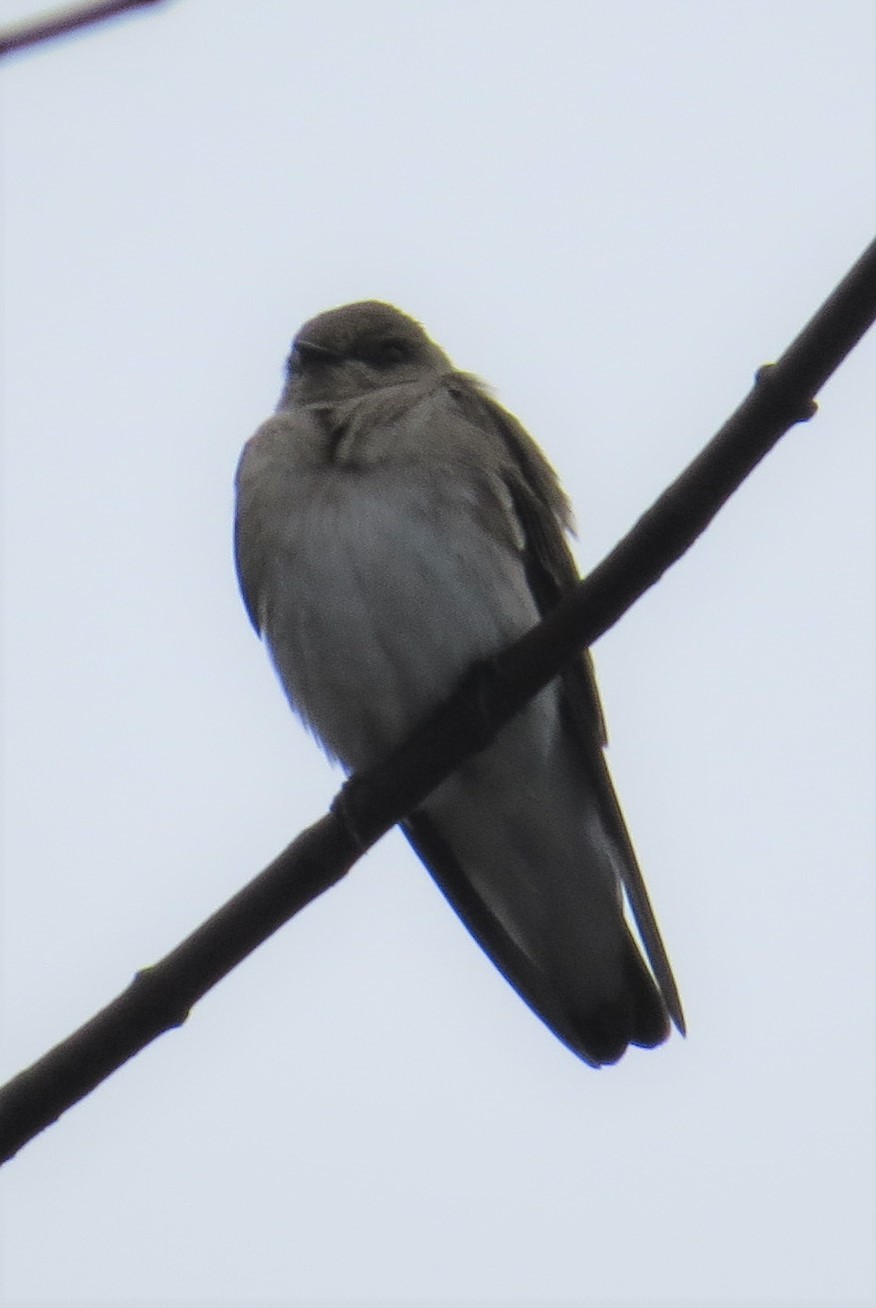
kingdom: Animalia
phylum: Chordata
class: Aves
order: Passeriformes
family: Hirundinidae
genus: Stelgidopteryx
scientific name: Stelgidopteryx serripennis
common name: Northern rough-winged swallow
